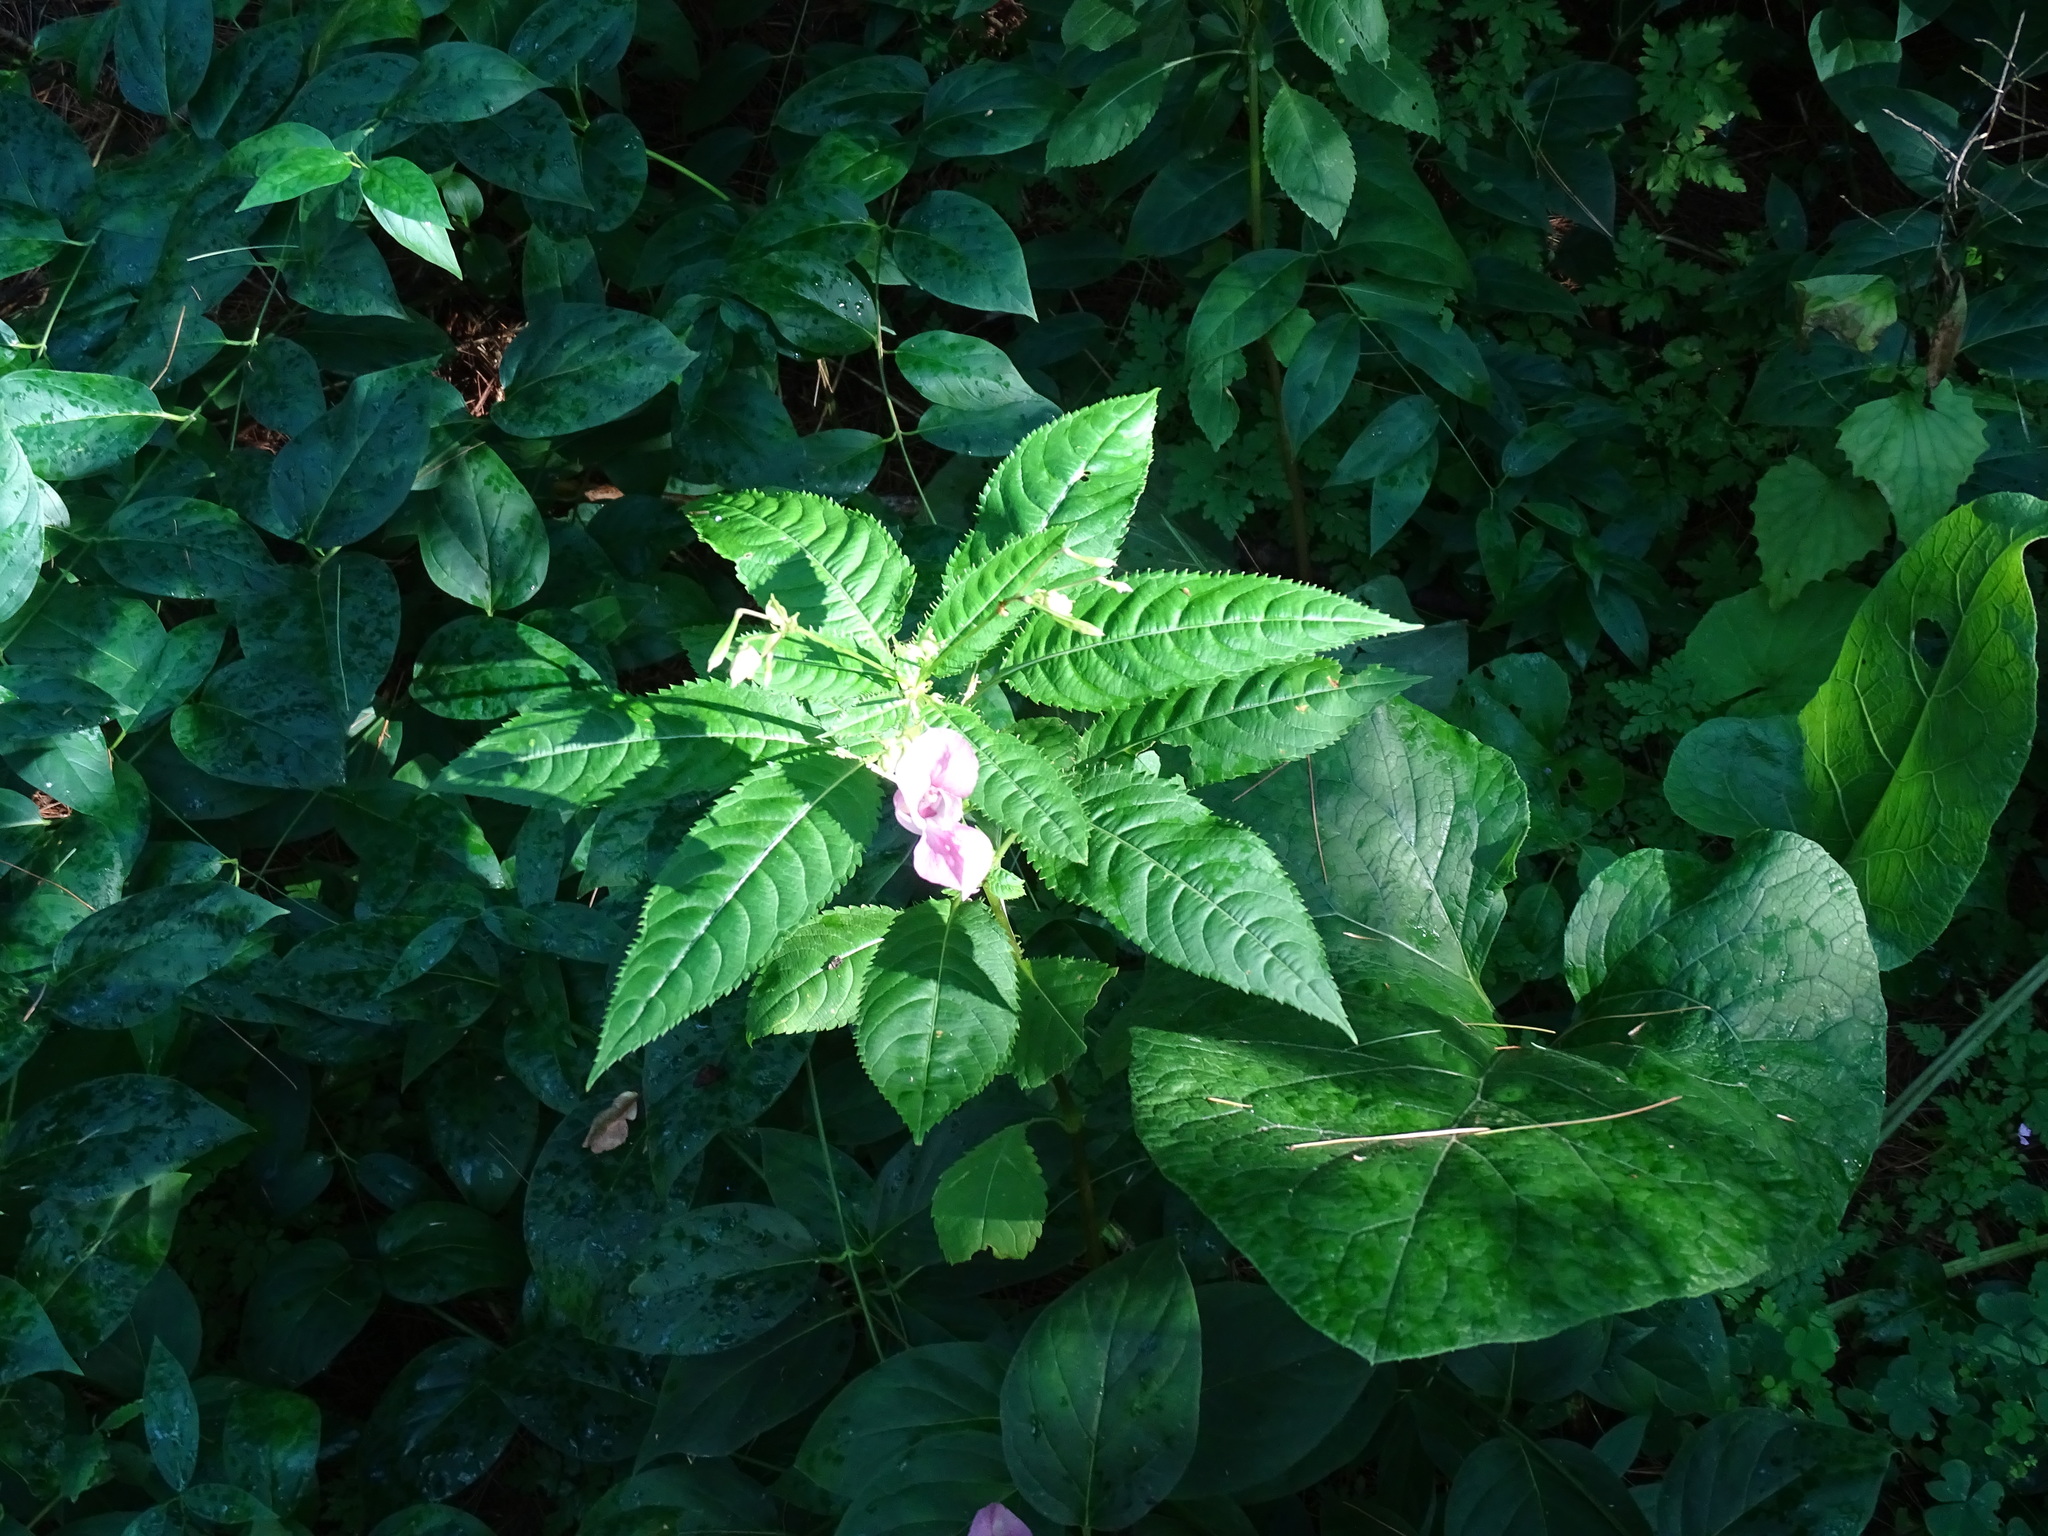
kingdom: Plantae
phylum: Tracheophyta
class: Magnoliopsida
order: Ericales
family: Balsaminaceae
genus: Impatiens
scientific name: Impatiens glandulifera
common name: Himalayan balsam
